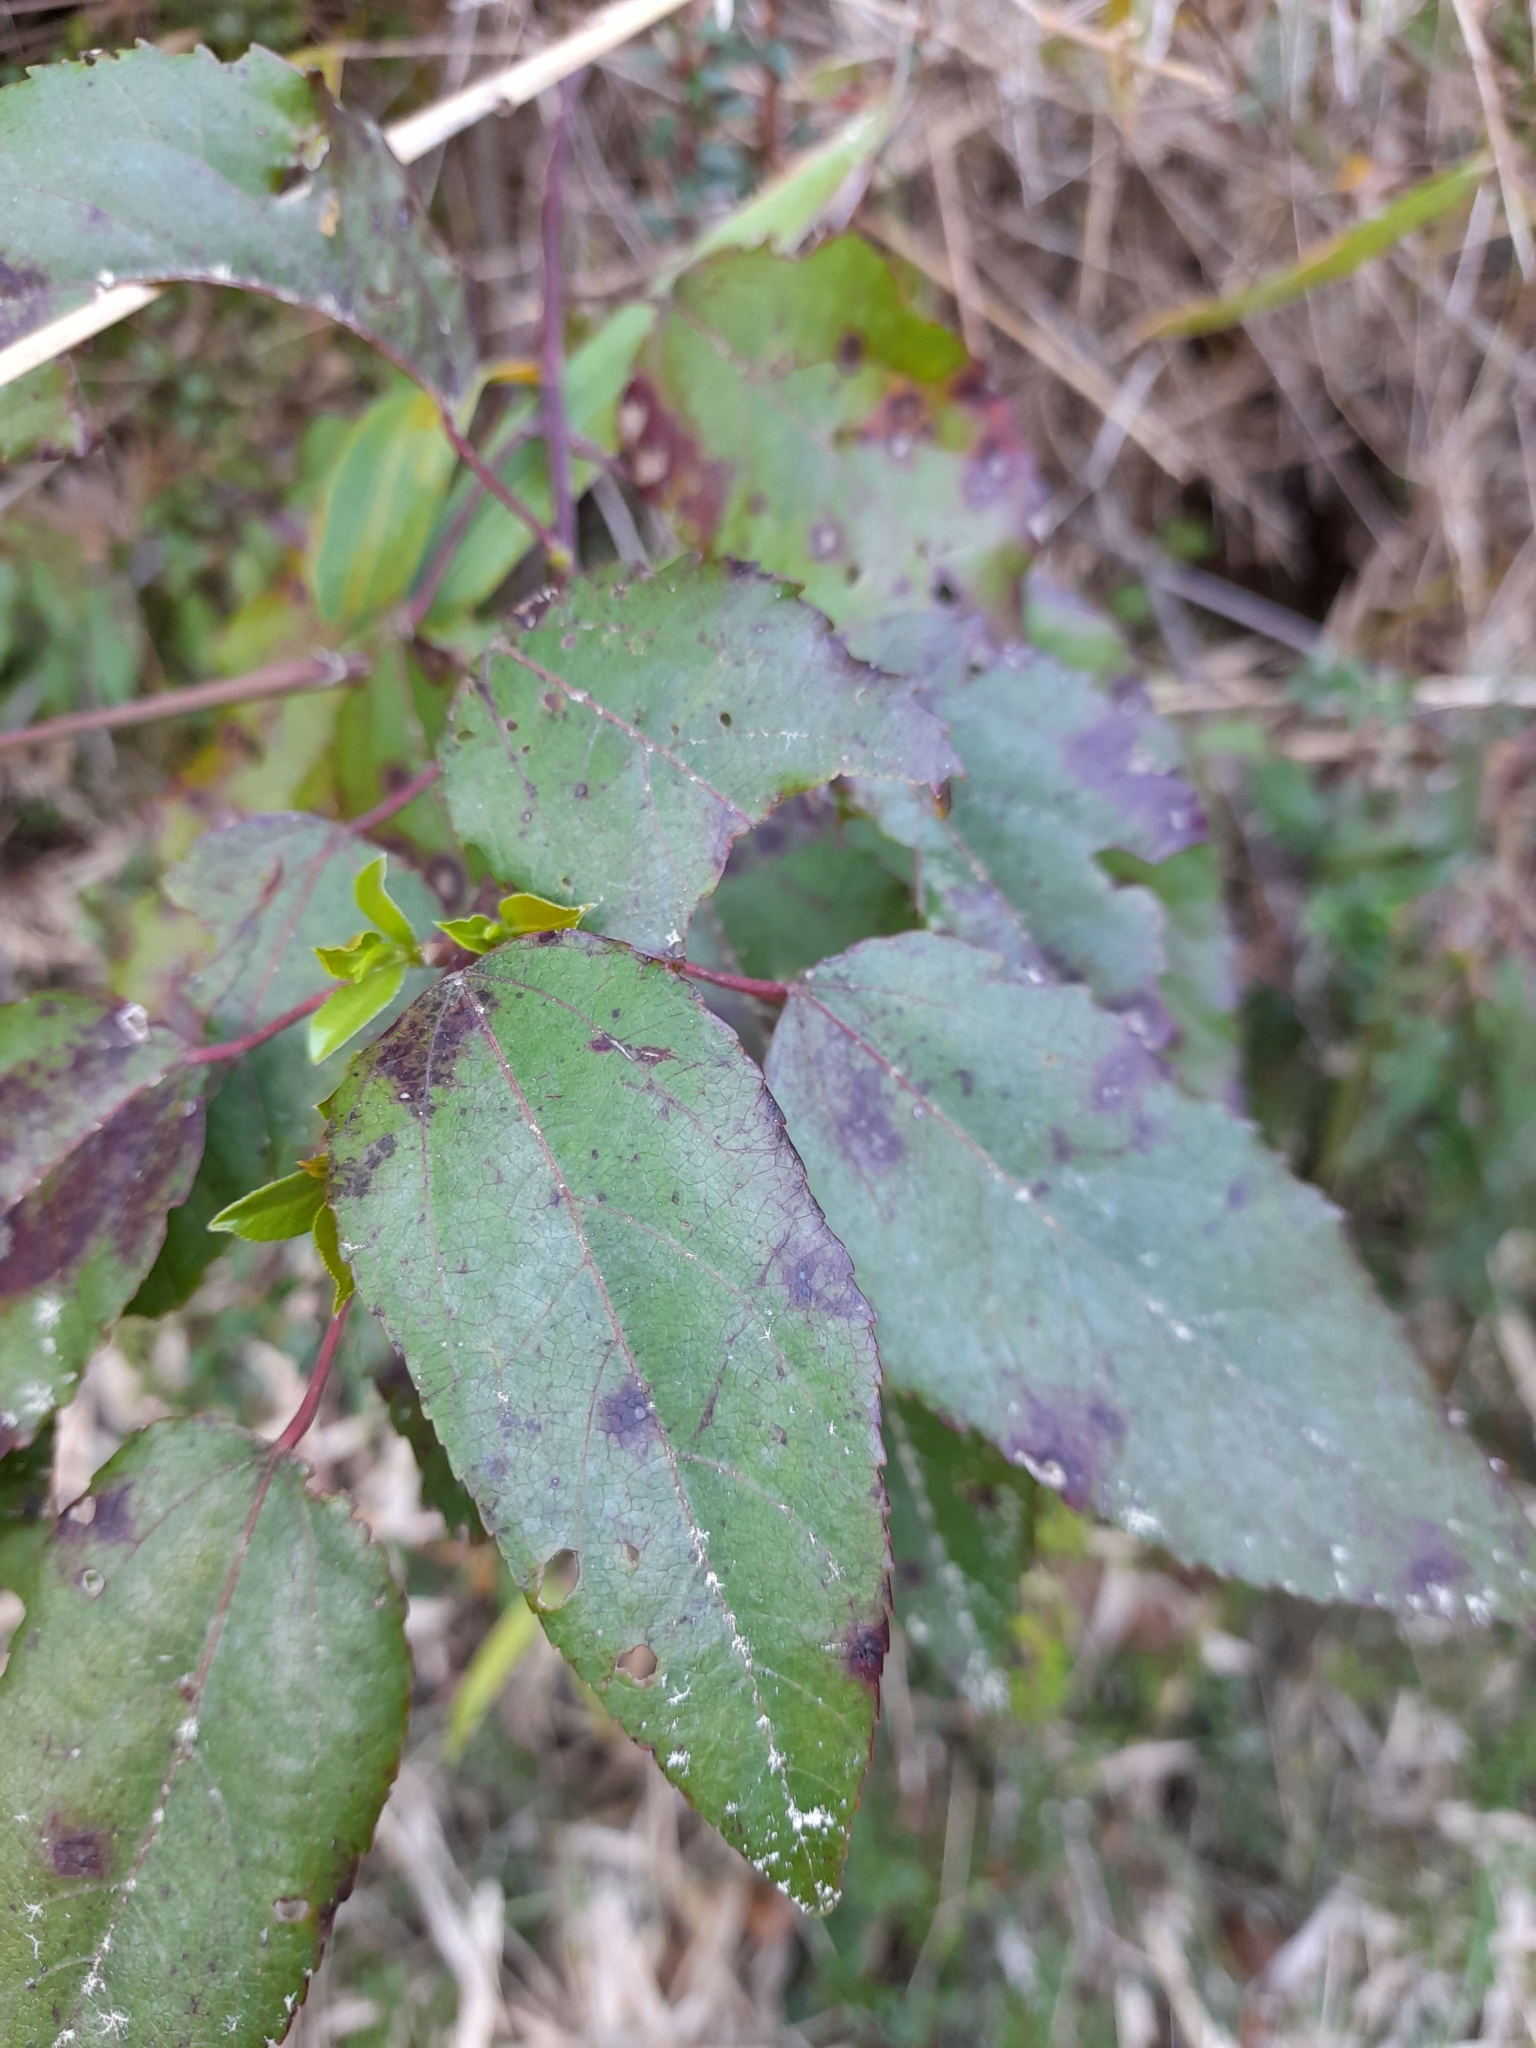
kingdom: Plantae
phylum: Tracheophyta
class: Magnoliopsida
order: Oxalidales
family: Elaeocarpaceae
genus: Aristotelia
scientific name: Aristotelia chilensis
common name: Maquei
